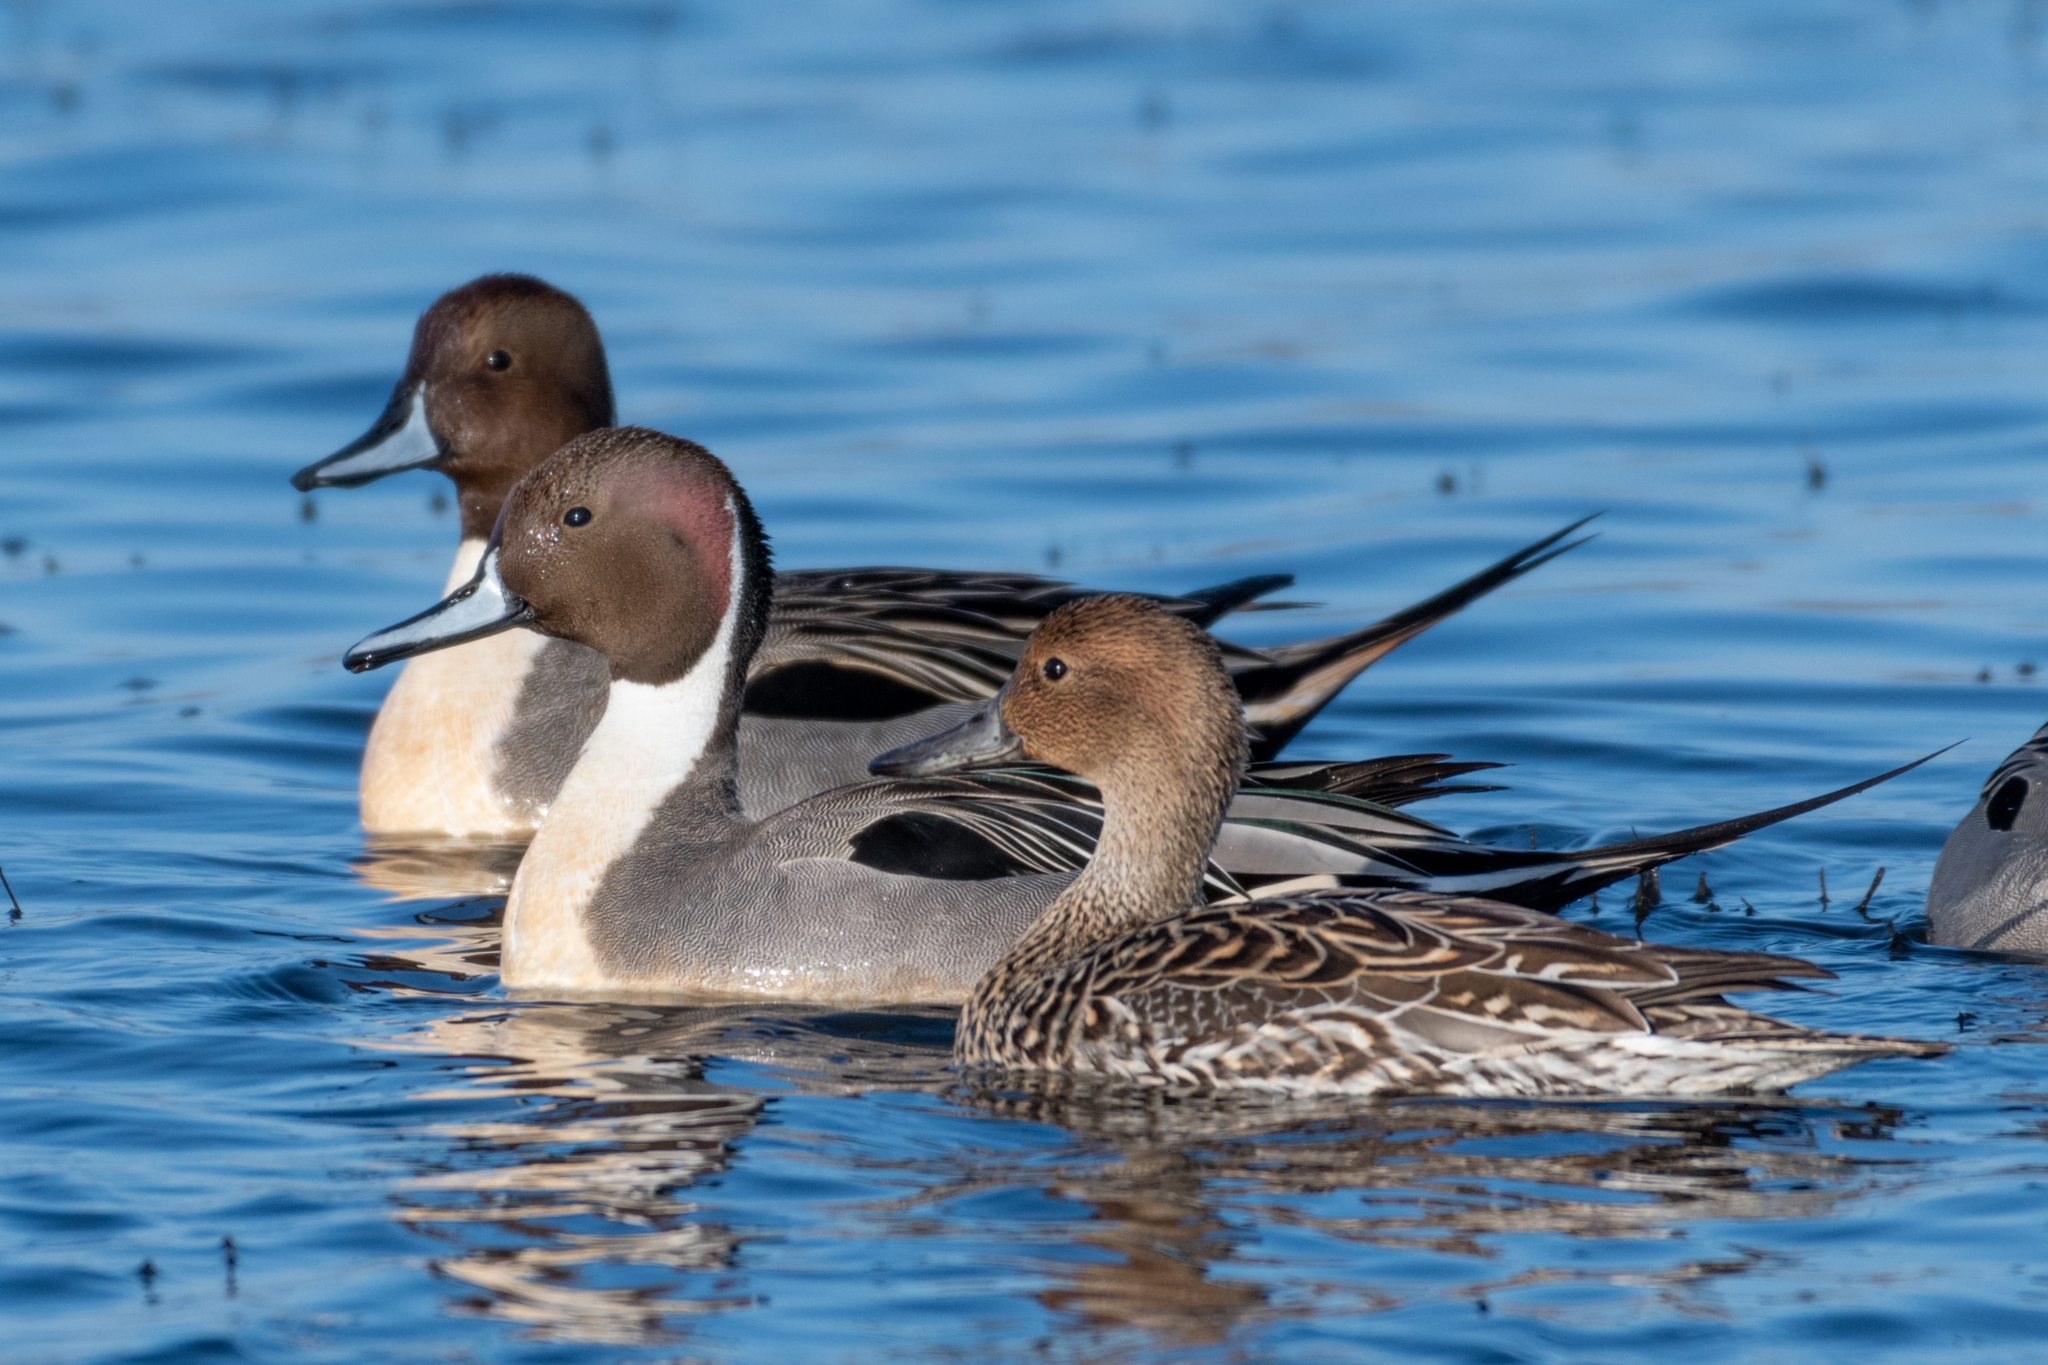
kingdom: Animalia
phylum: Chordata
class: Aves
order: Anseriformes
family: Anatidae
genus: Anas
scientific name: Anas acuta
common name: Northern pintail
